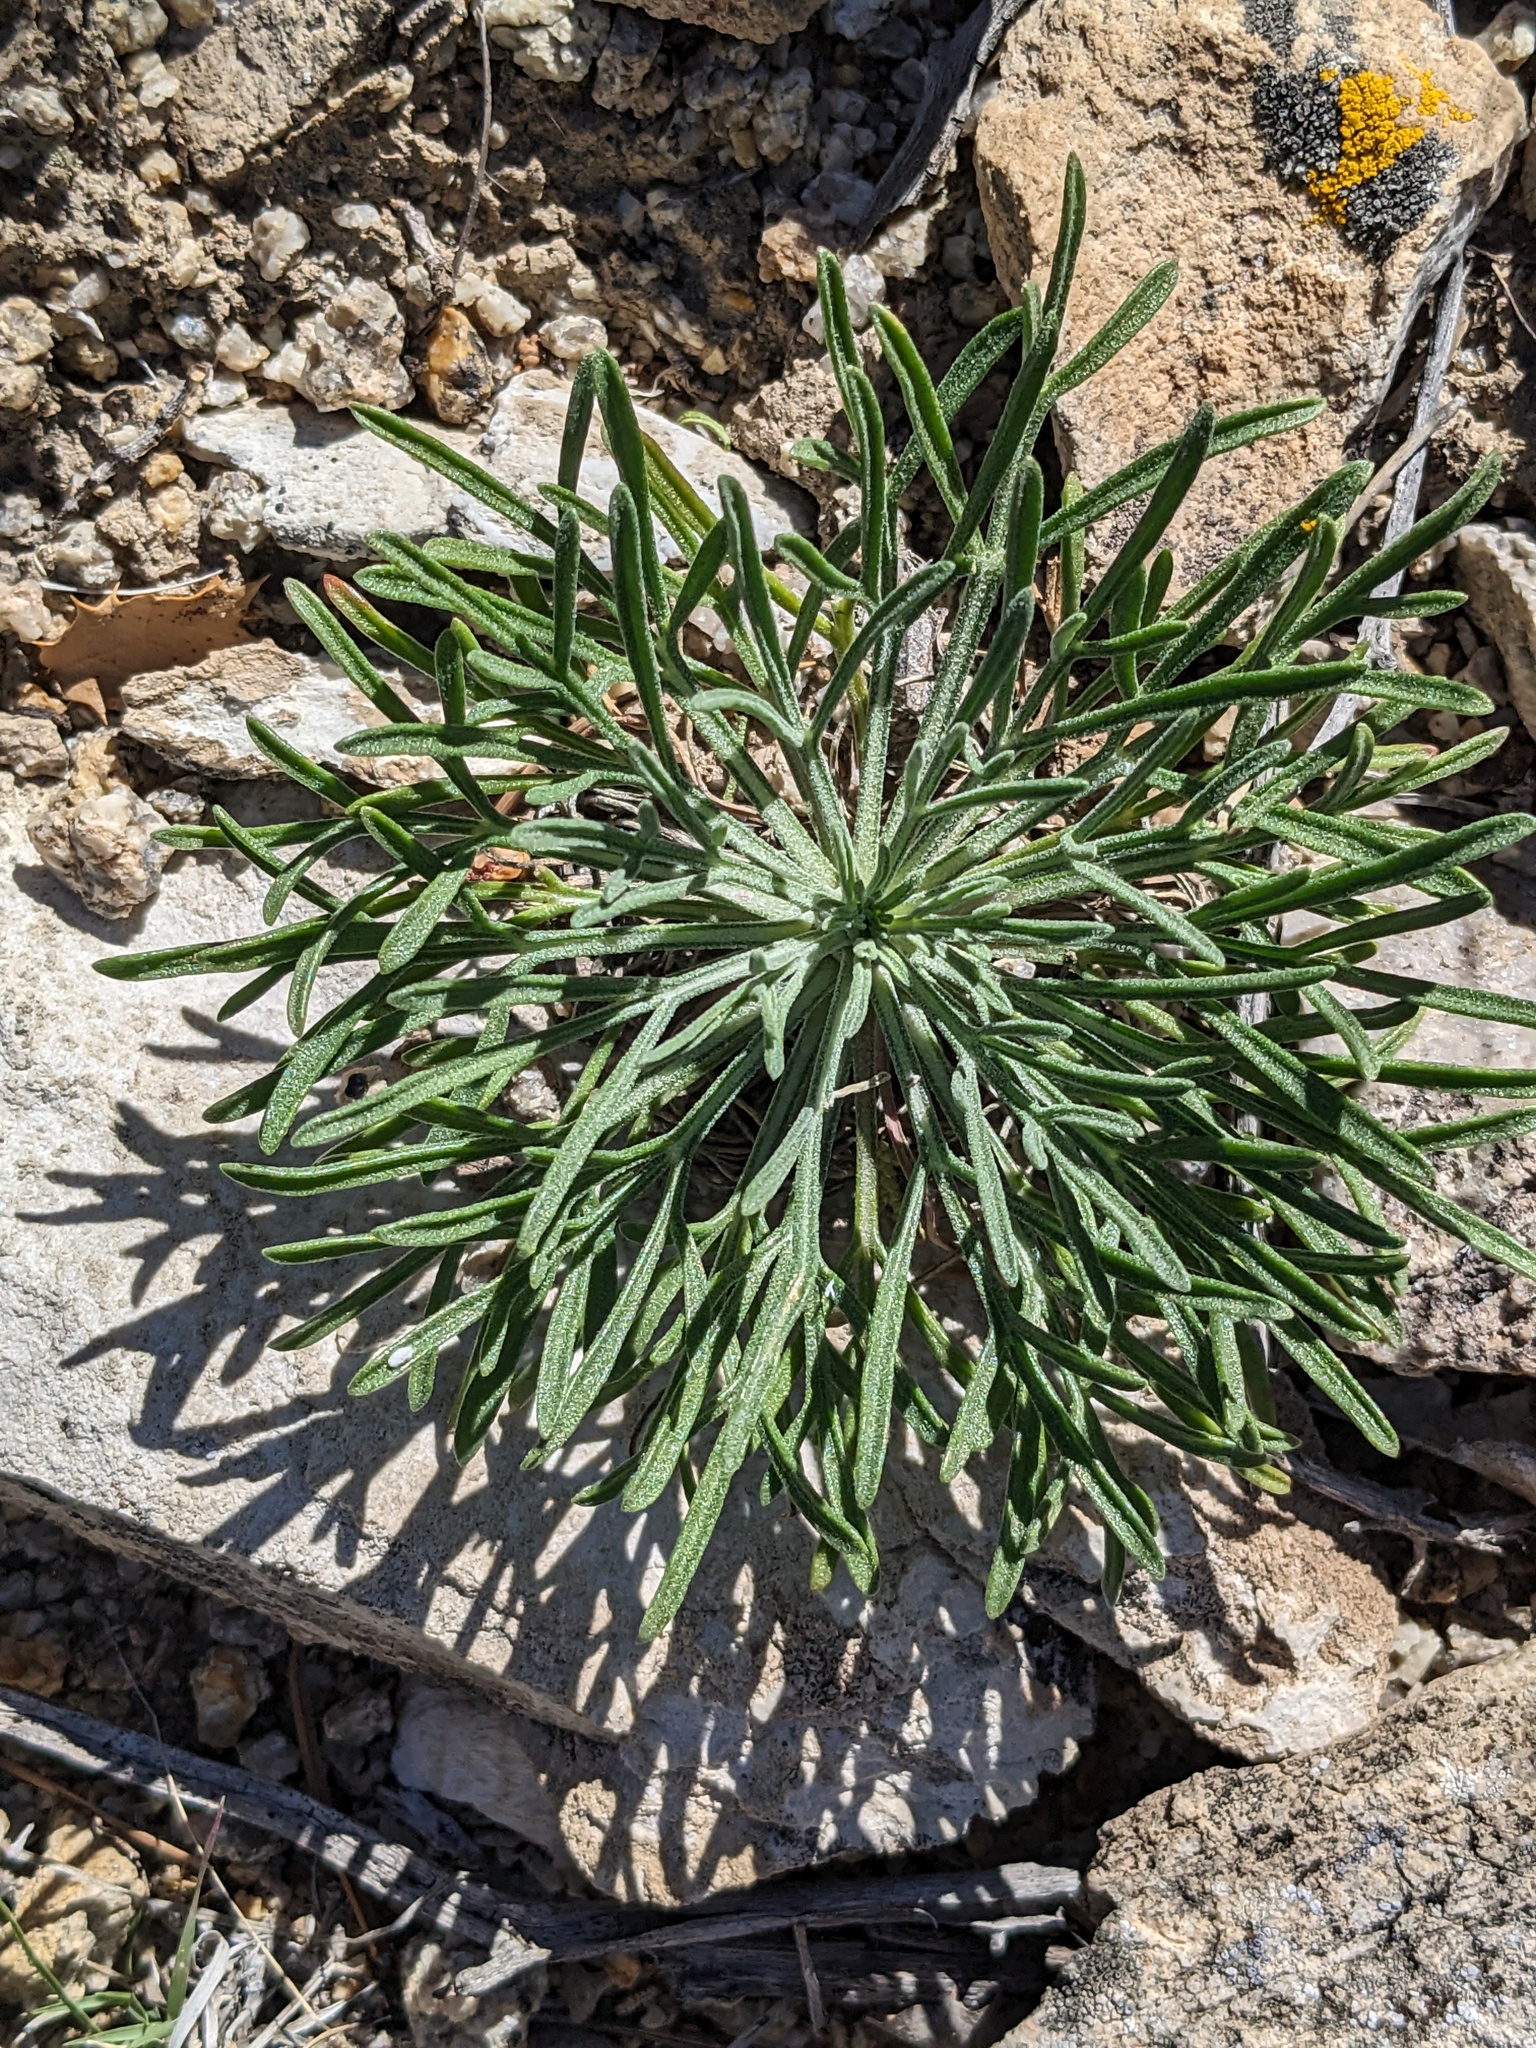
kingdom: Plantae
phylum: Tracheophyta
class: Magnoliopsida
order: Asterales
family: Asteraceae
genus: Hymenoxys
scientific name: Hymenoxys cooperi
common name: Cooper's bitterweed
